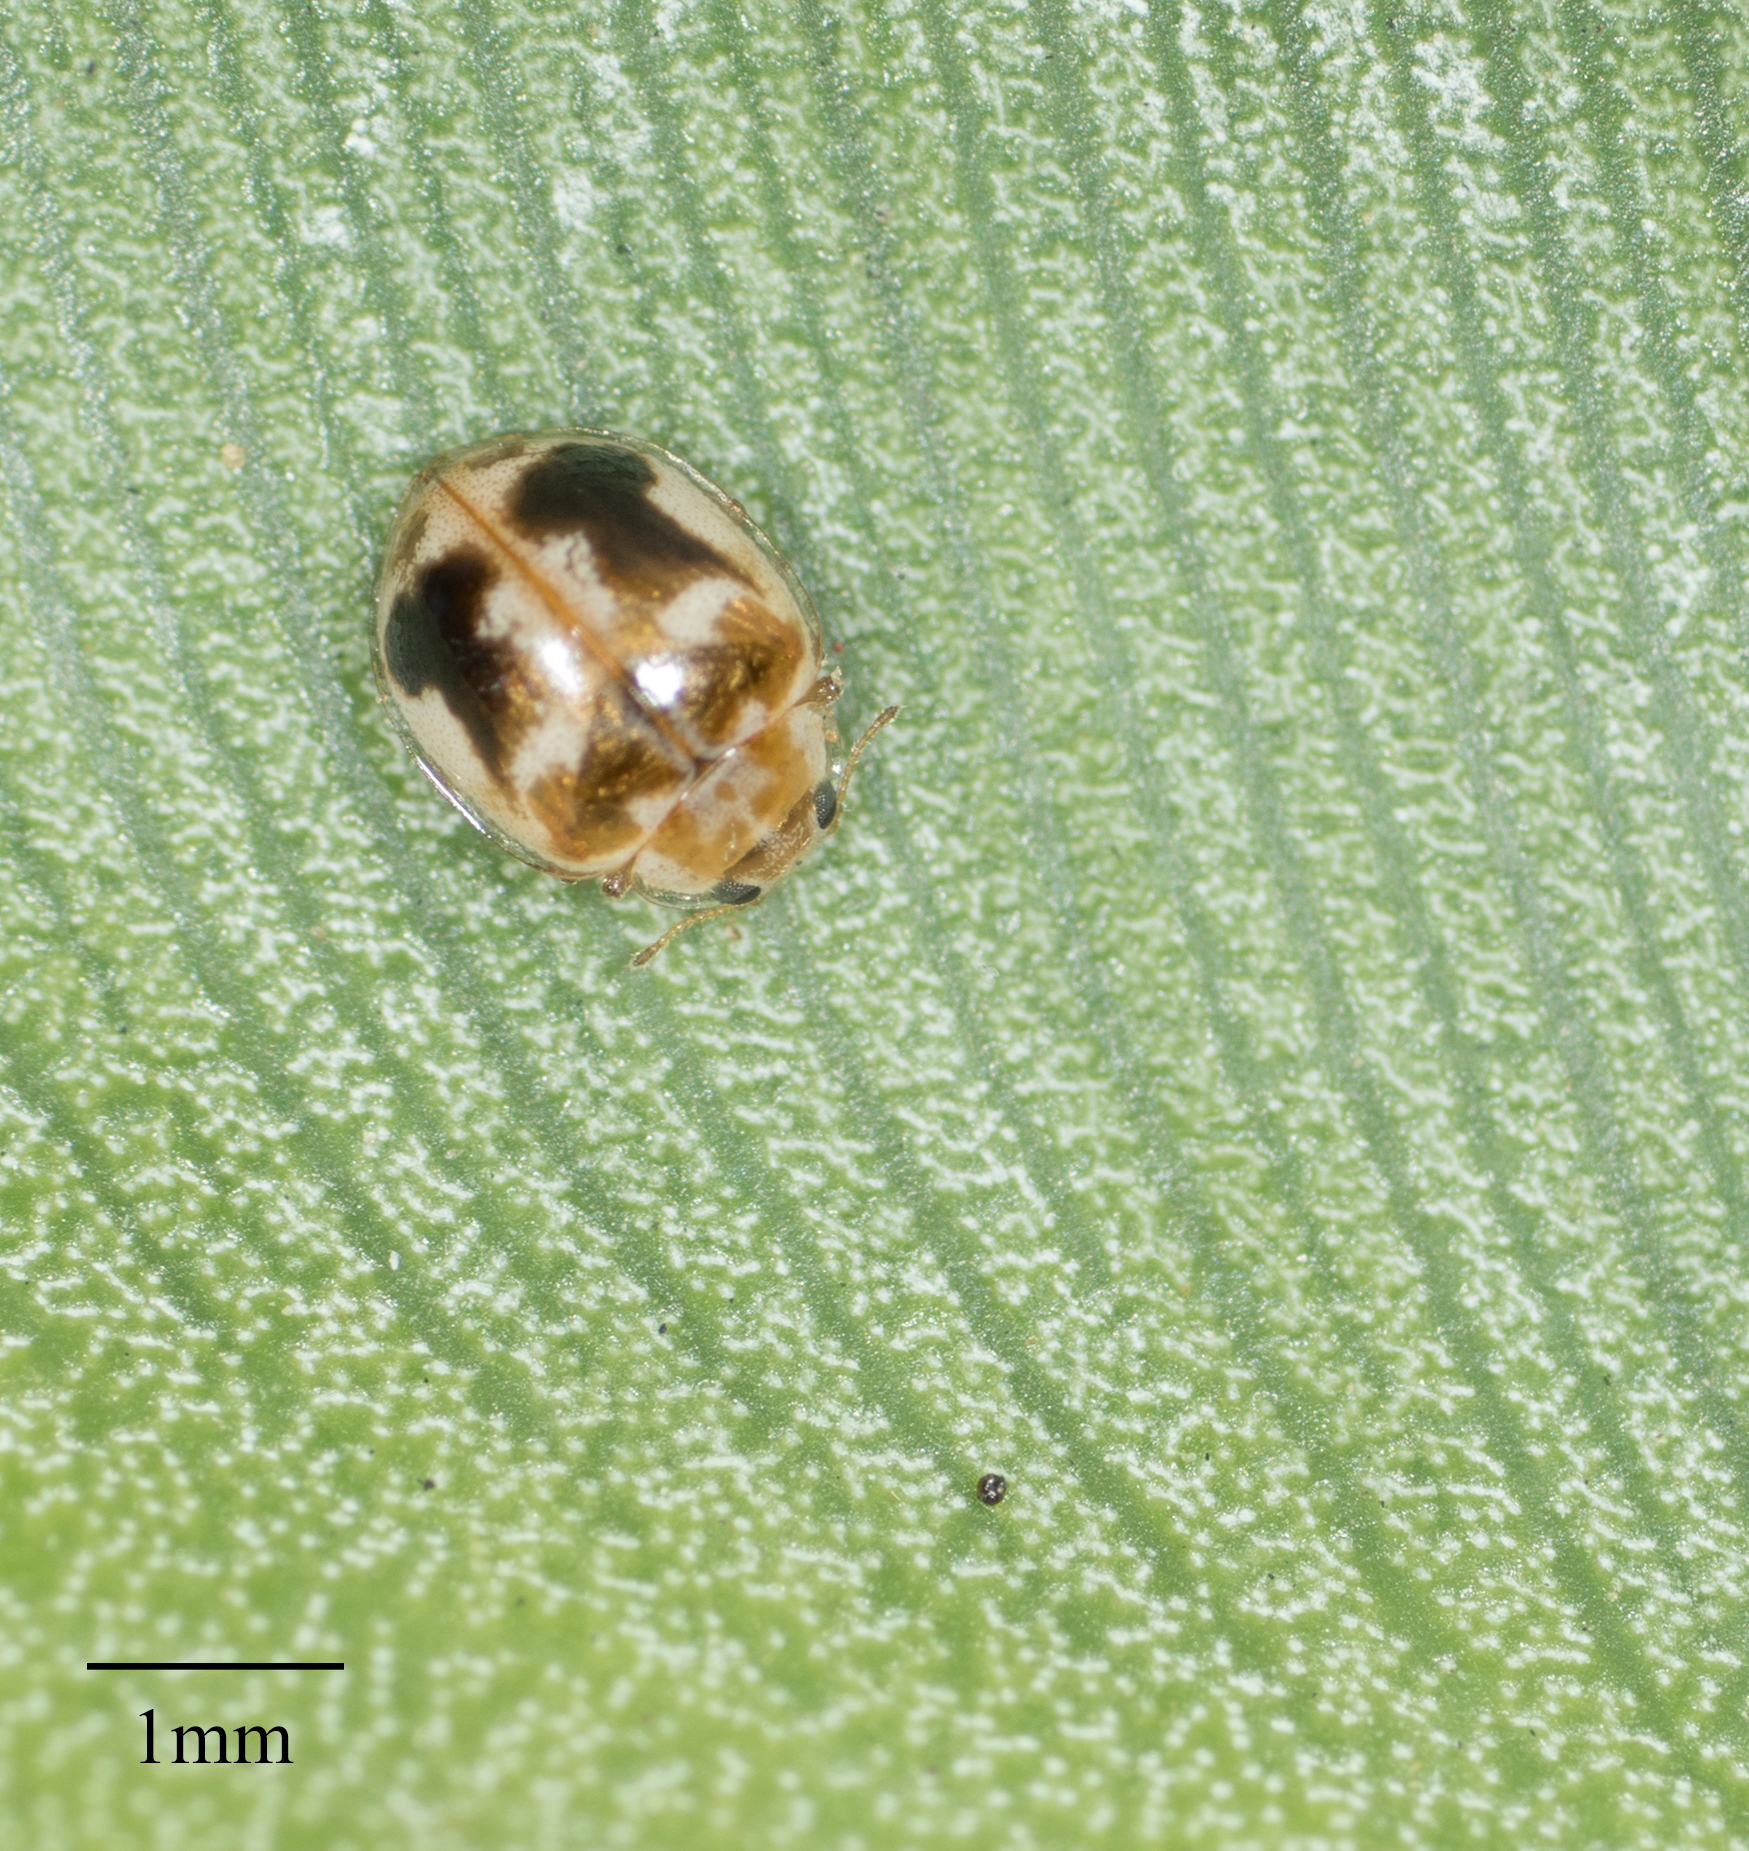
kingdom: Animalia
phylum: Arthropoda
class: Insecta
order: Coleoptera
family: Coccinellidae
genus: Psyllobora
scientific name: Psyllobora renifer
